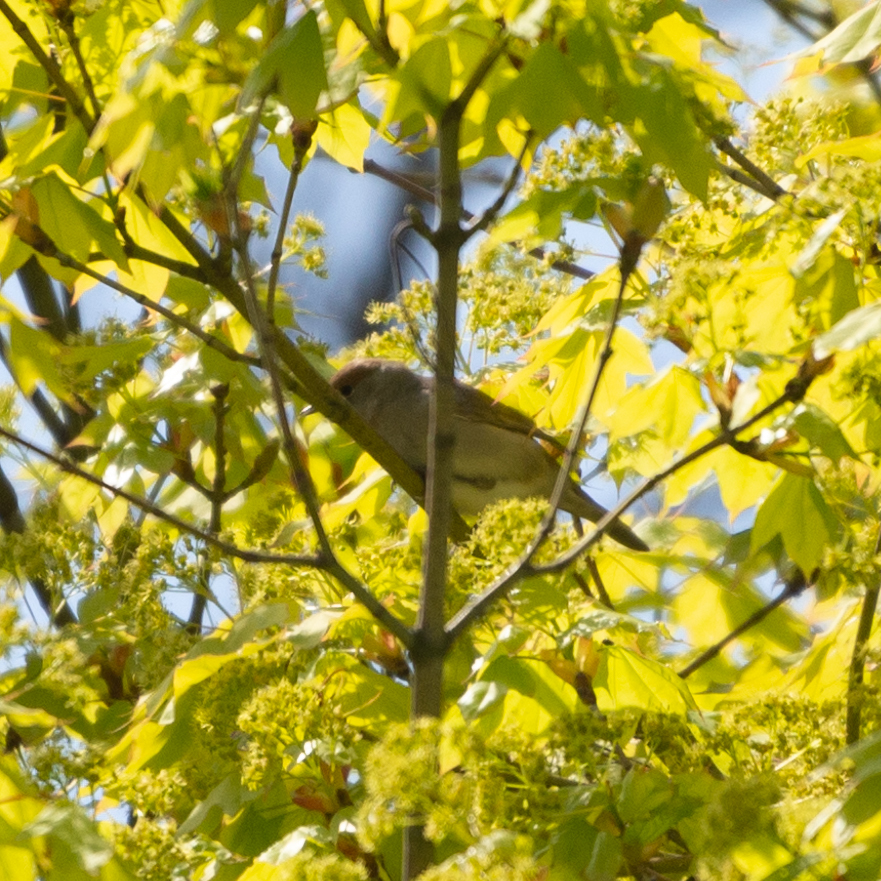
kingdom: Animalia
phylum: Chordata
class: Aves
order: Passeriformes
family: Sylviidae
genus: Sylvia
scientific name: Sylvia atricapilla
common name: Eurasian blackcap
